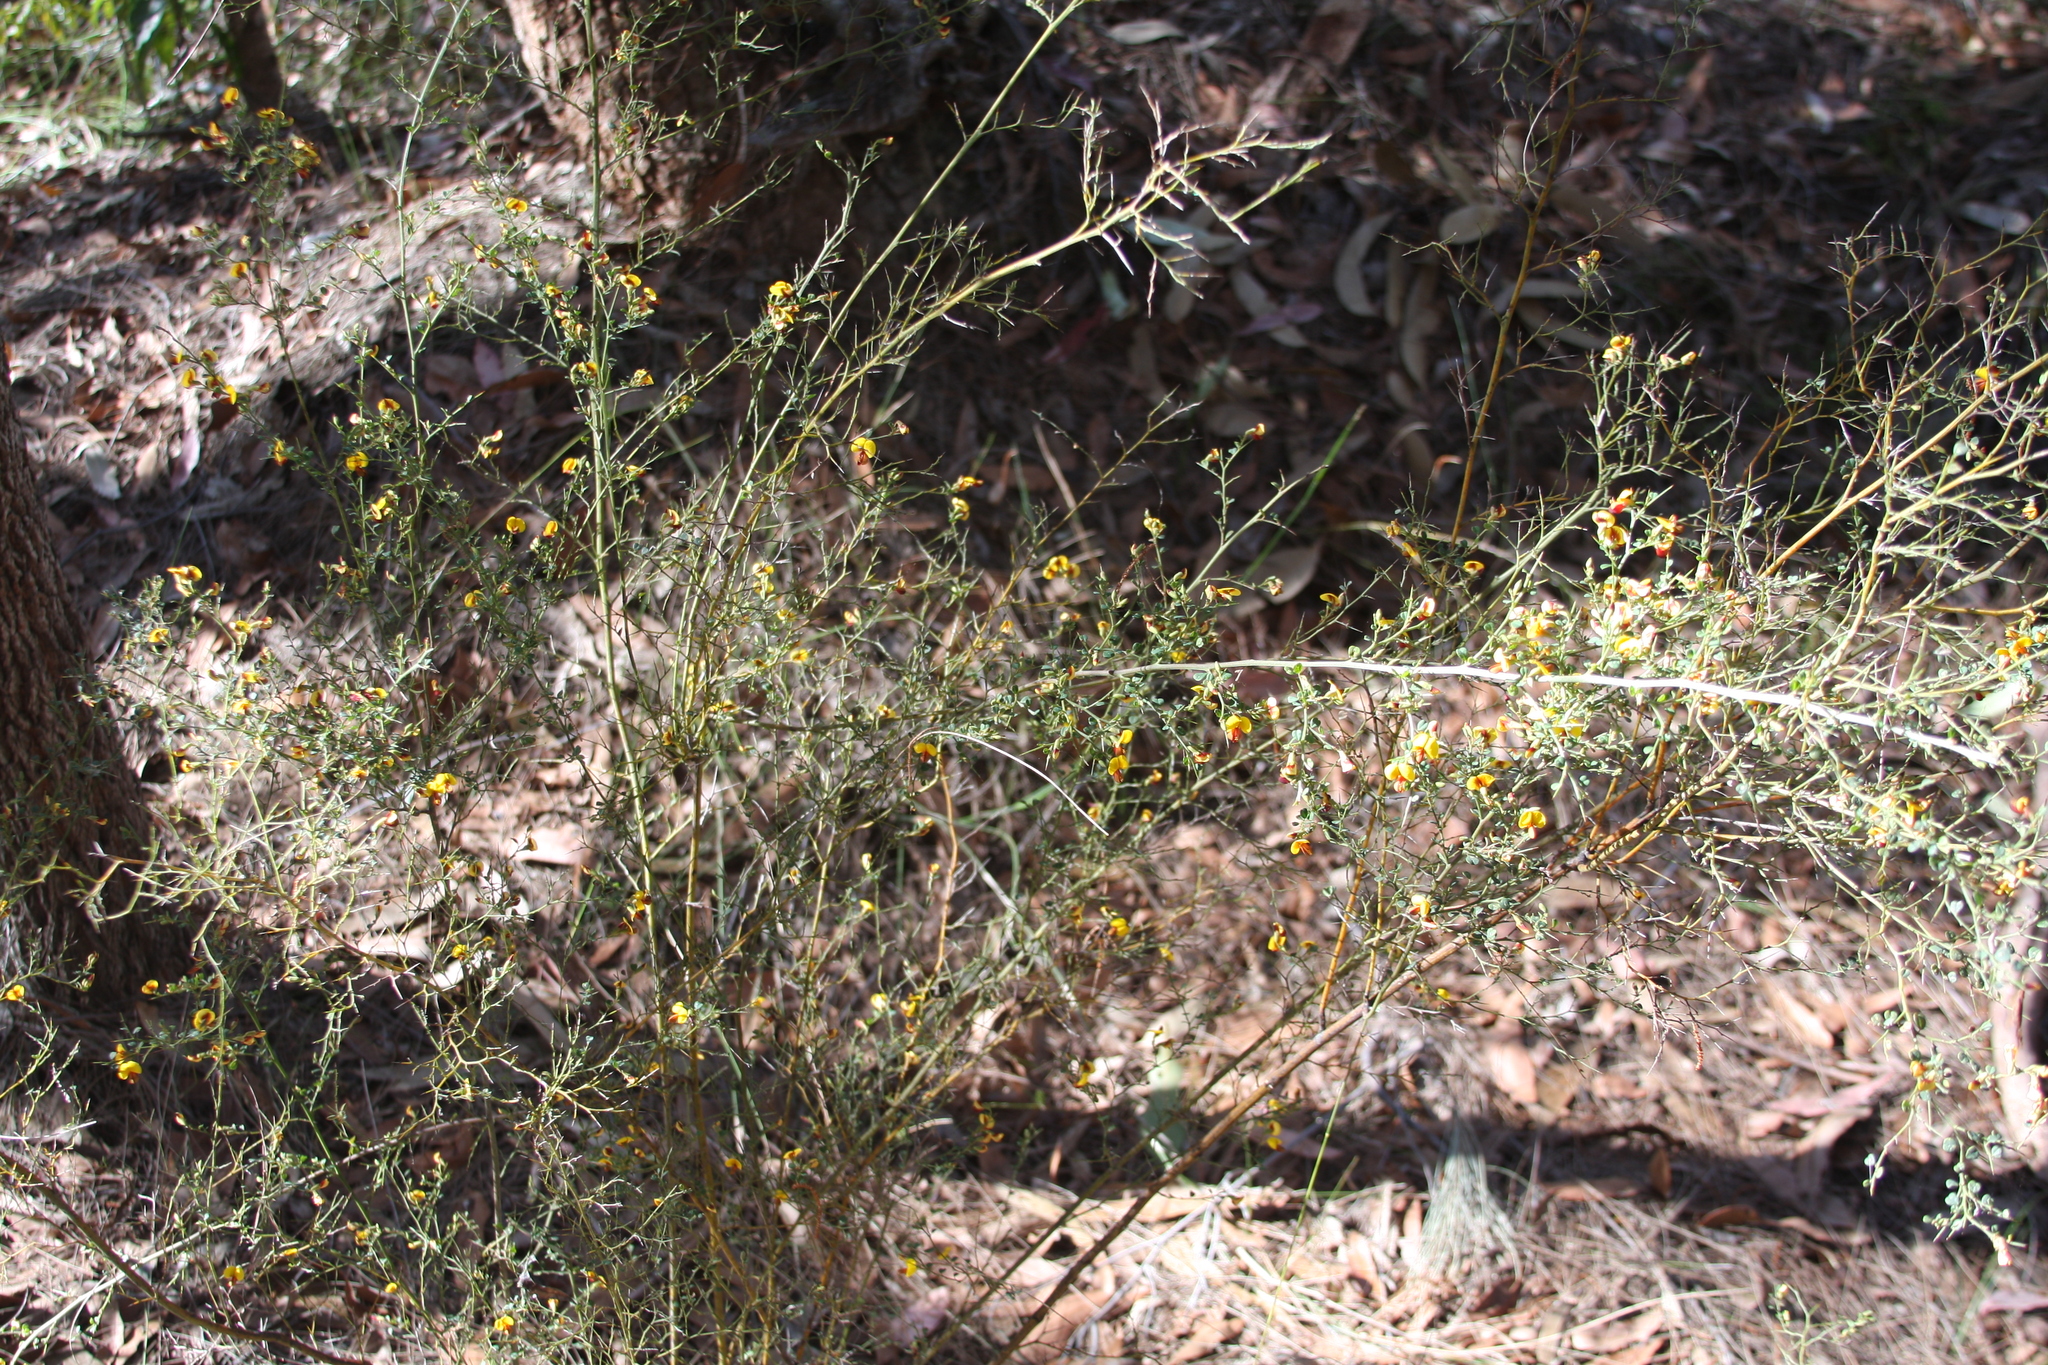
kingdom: Plantae
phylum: Tracheophyta
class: Magnoliopsida
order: Fabales
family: Fabaceae
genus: Bossiaea
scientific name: Bossiaea obcordata
